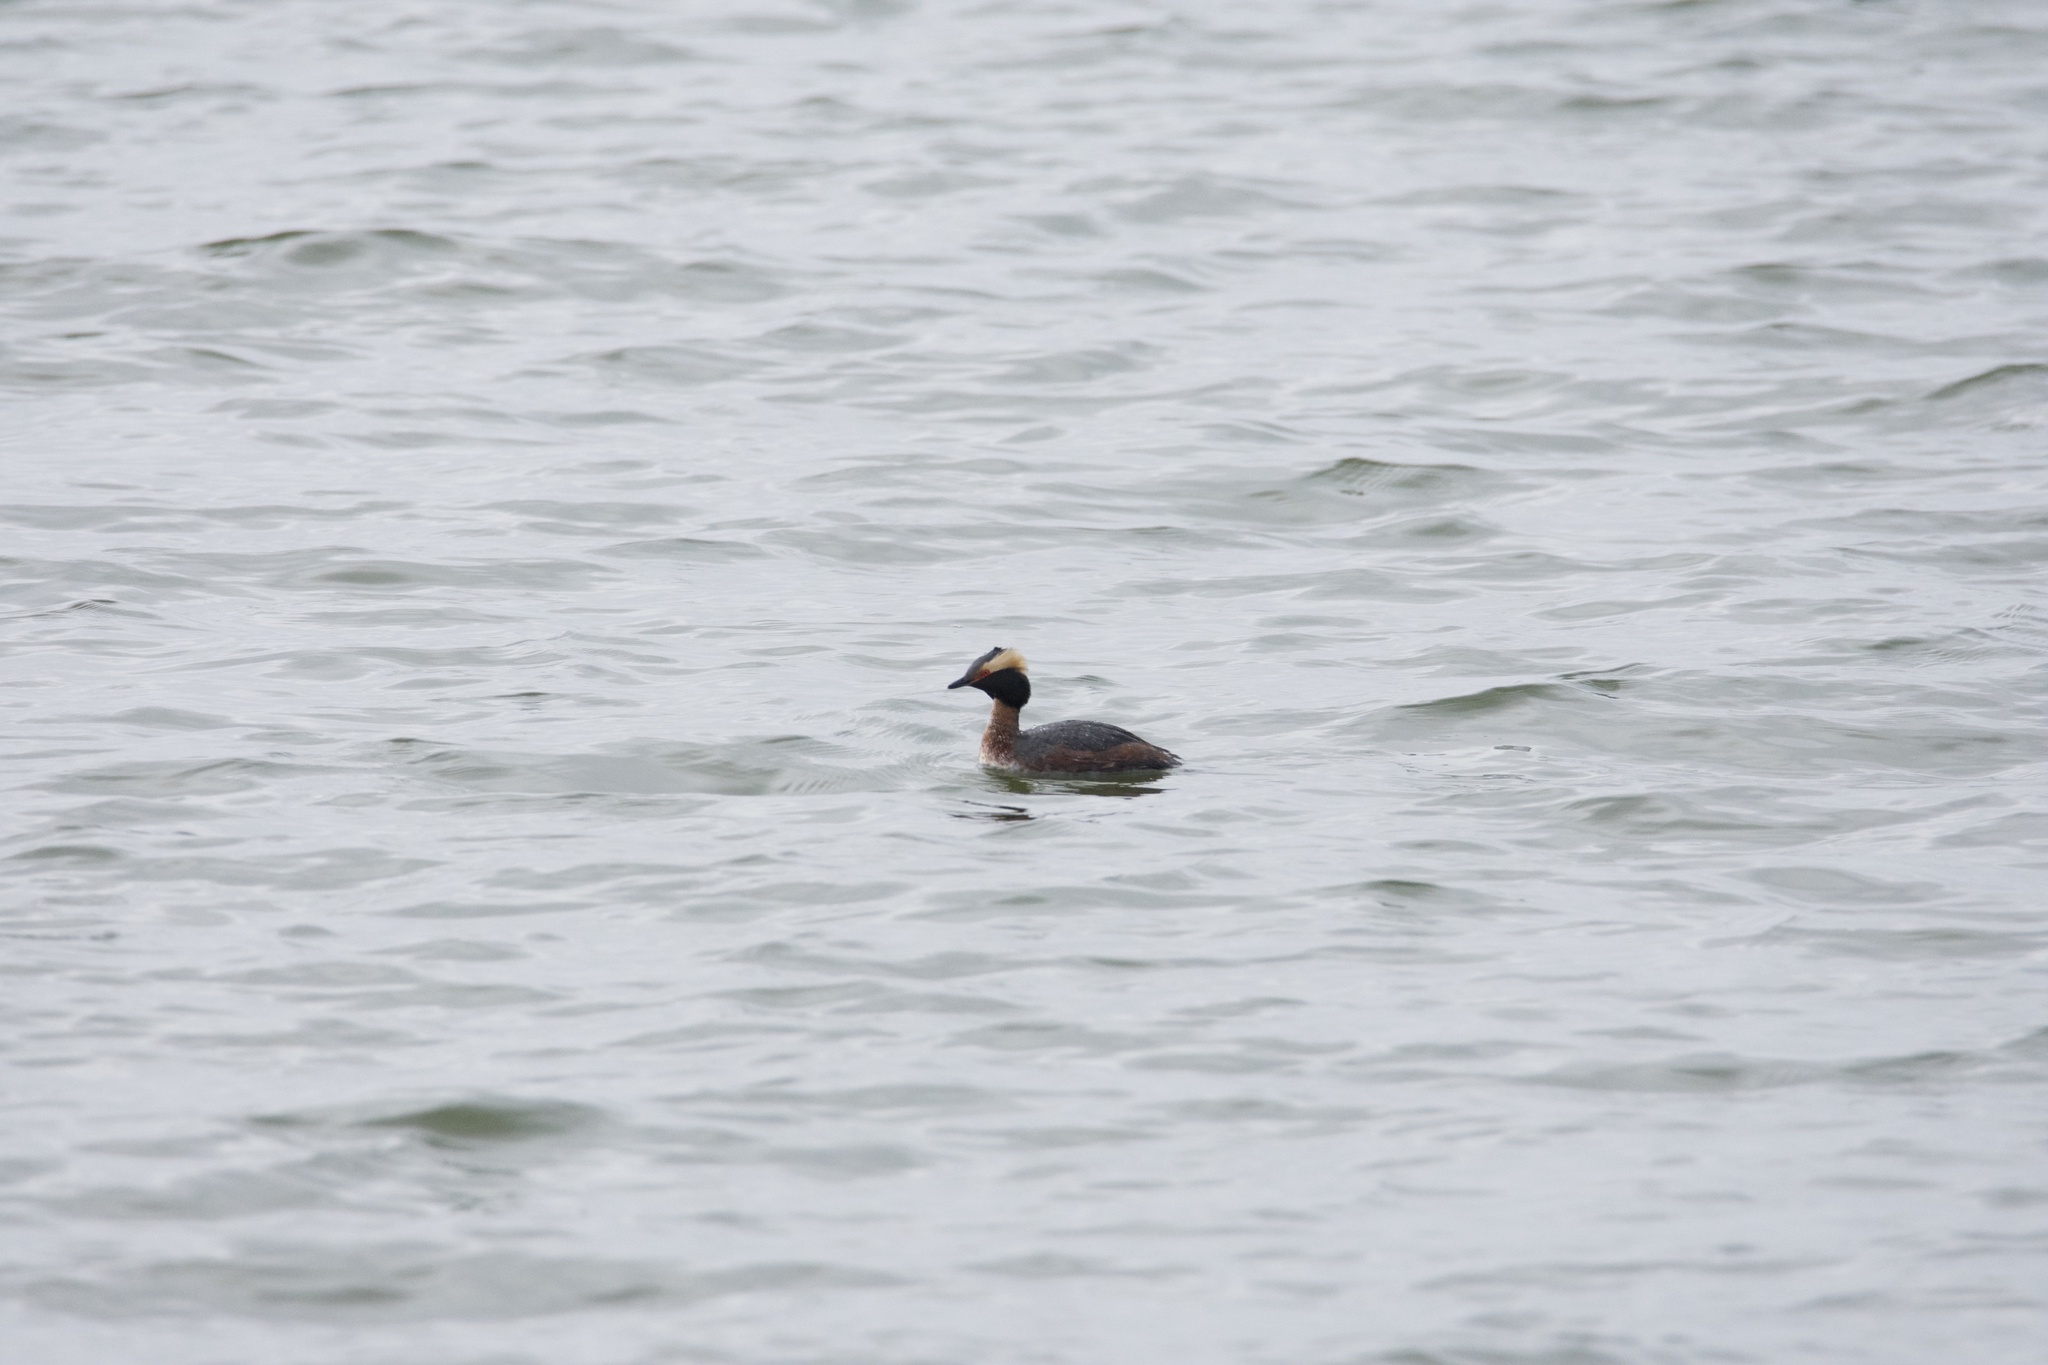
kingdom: Animalia
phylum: Chordata
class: Aves
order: Podicipediformes
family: Podicipedidae
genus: Podiceps
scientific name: Podiceps auritus
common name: Horned grebe
